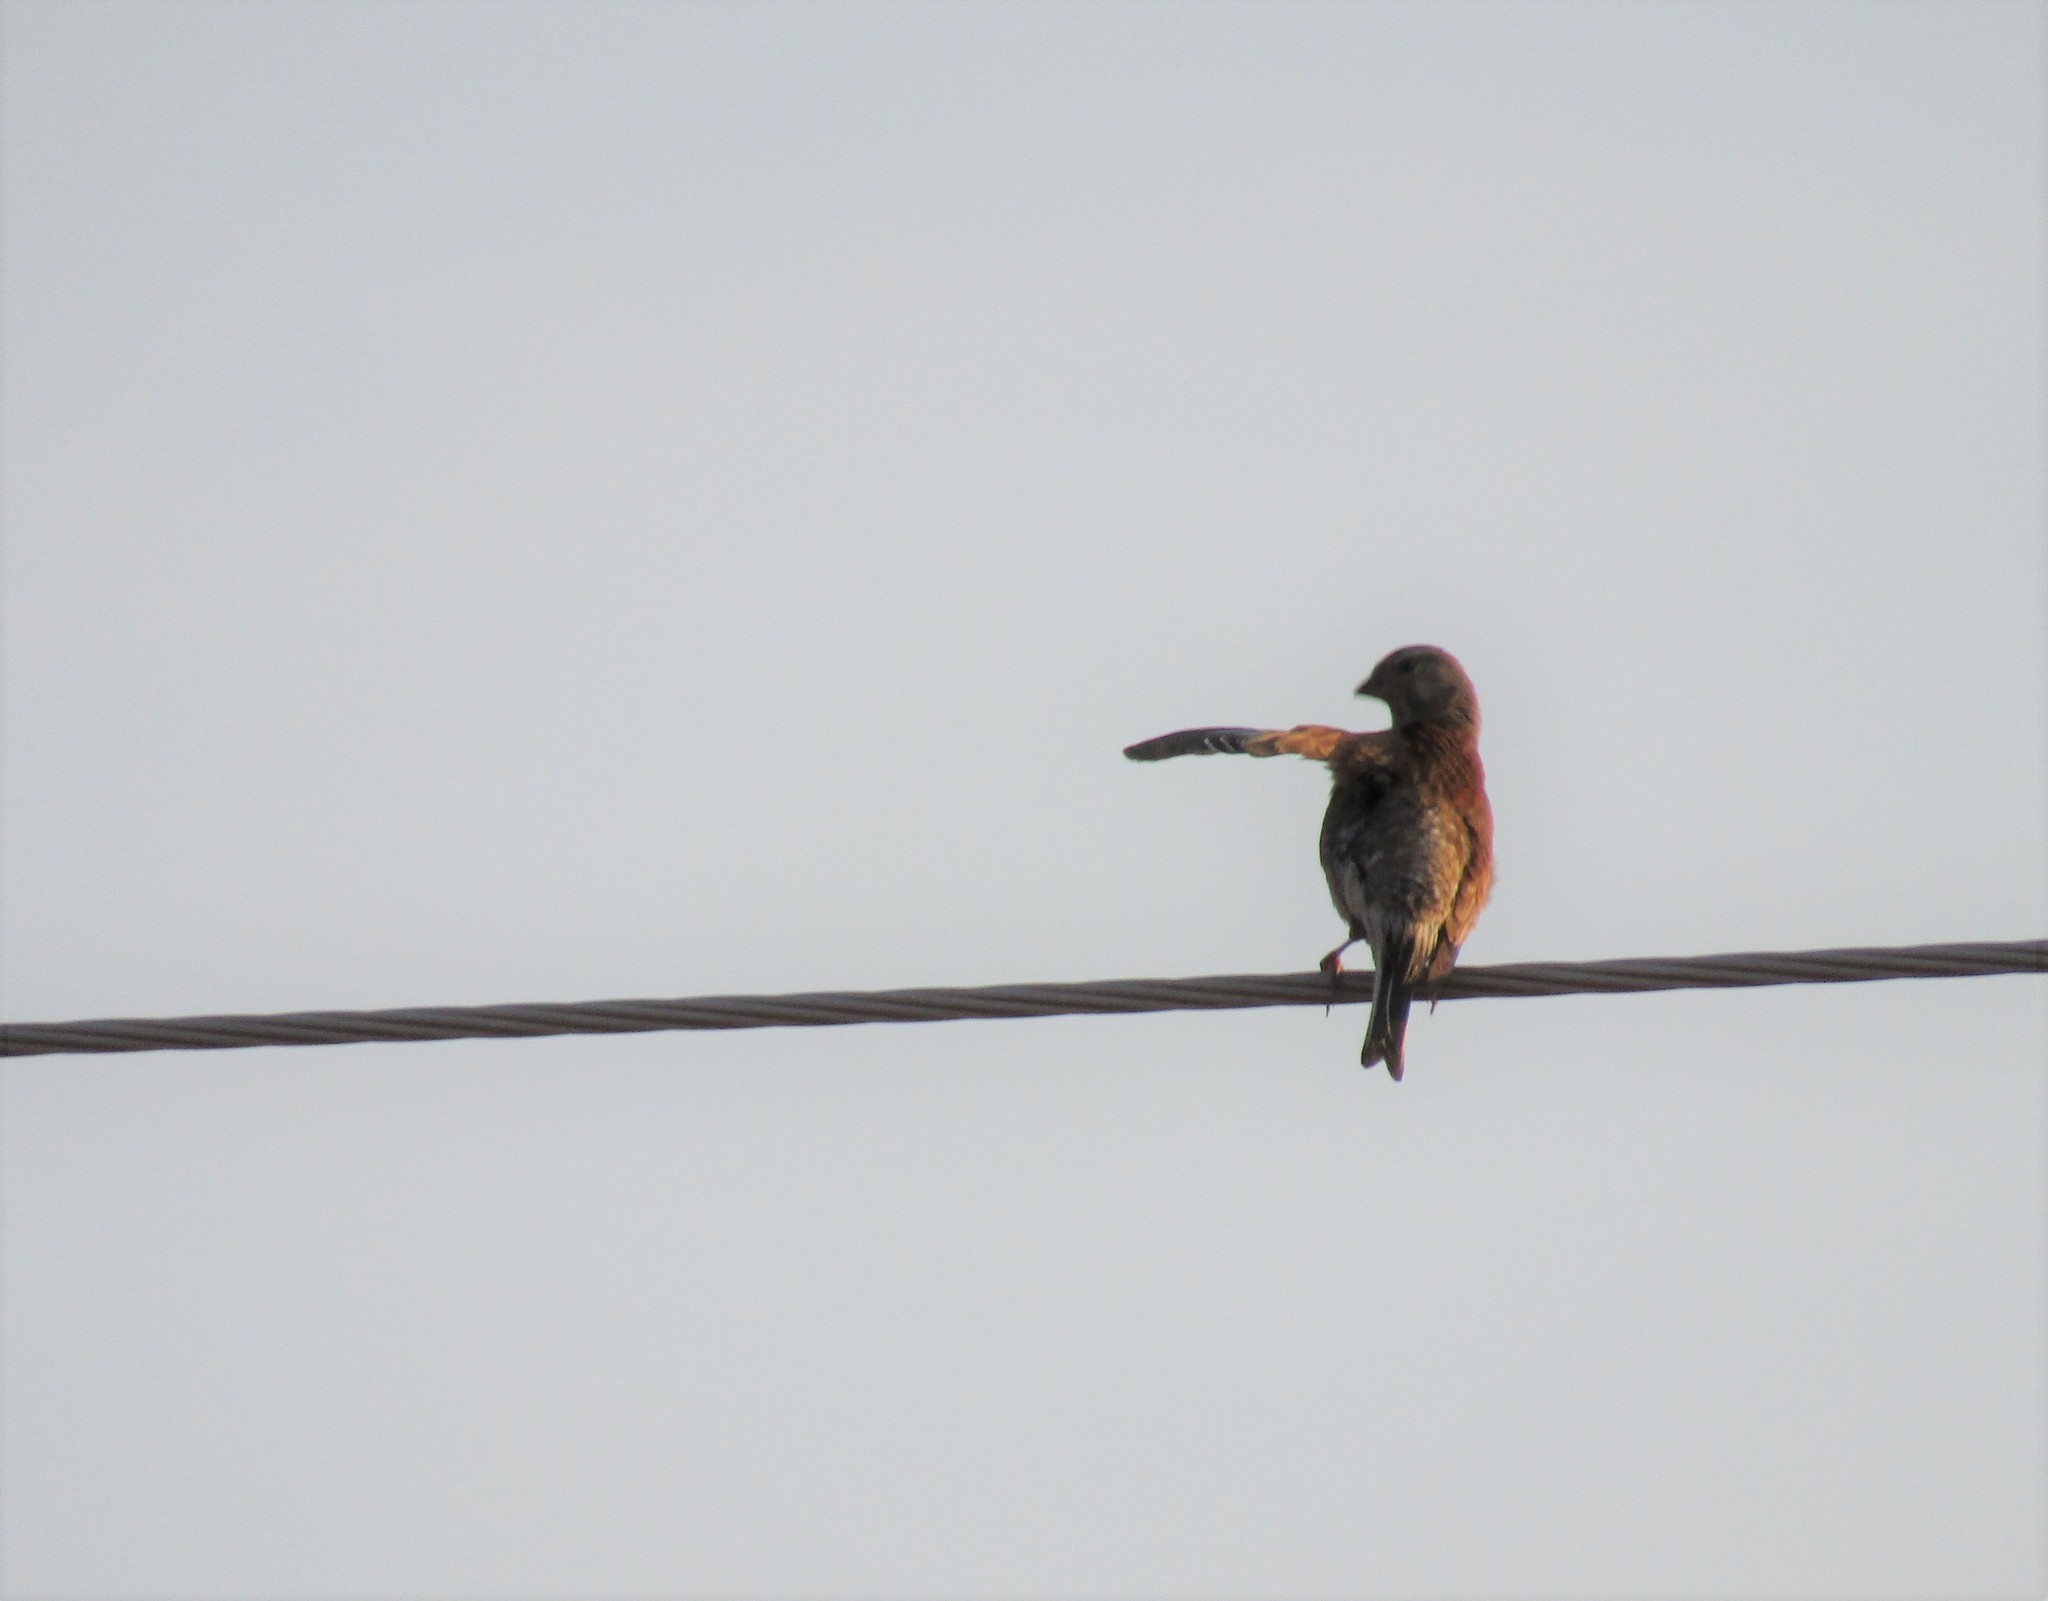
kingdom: Animalia
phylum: Chordata
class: Aves
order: Passeriformes
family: Fringillidae
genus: Linaria
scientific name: Linaria cannabina
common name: Common linnet
